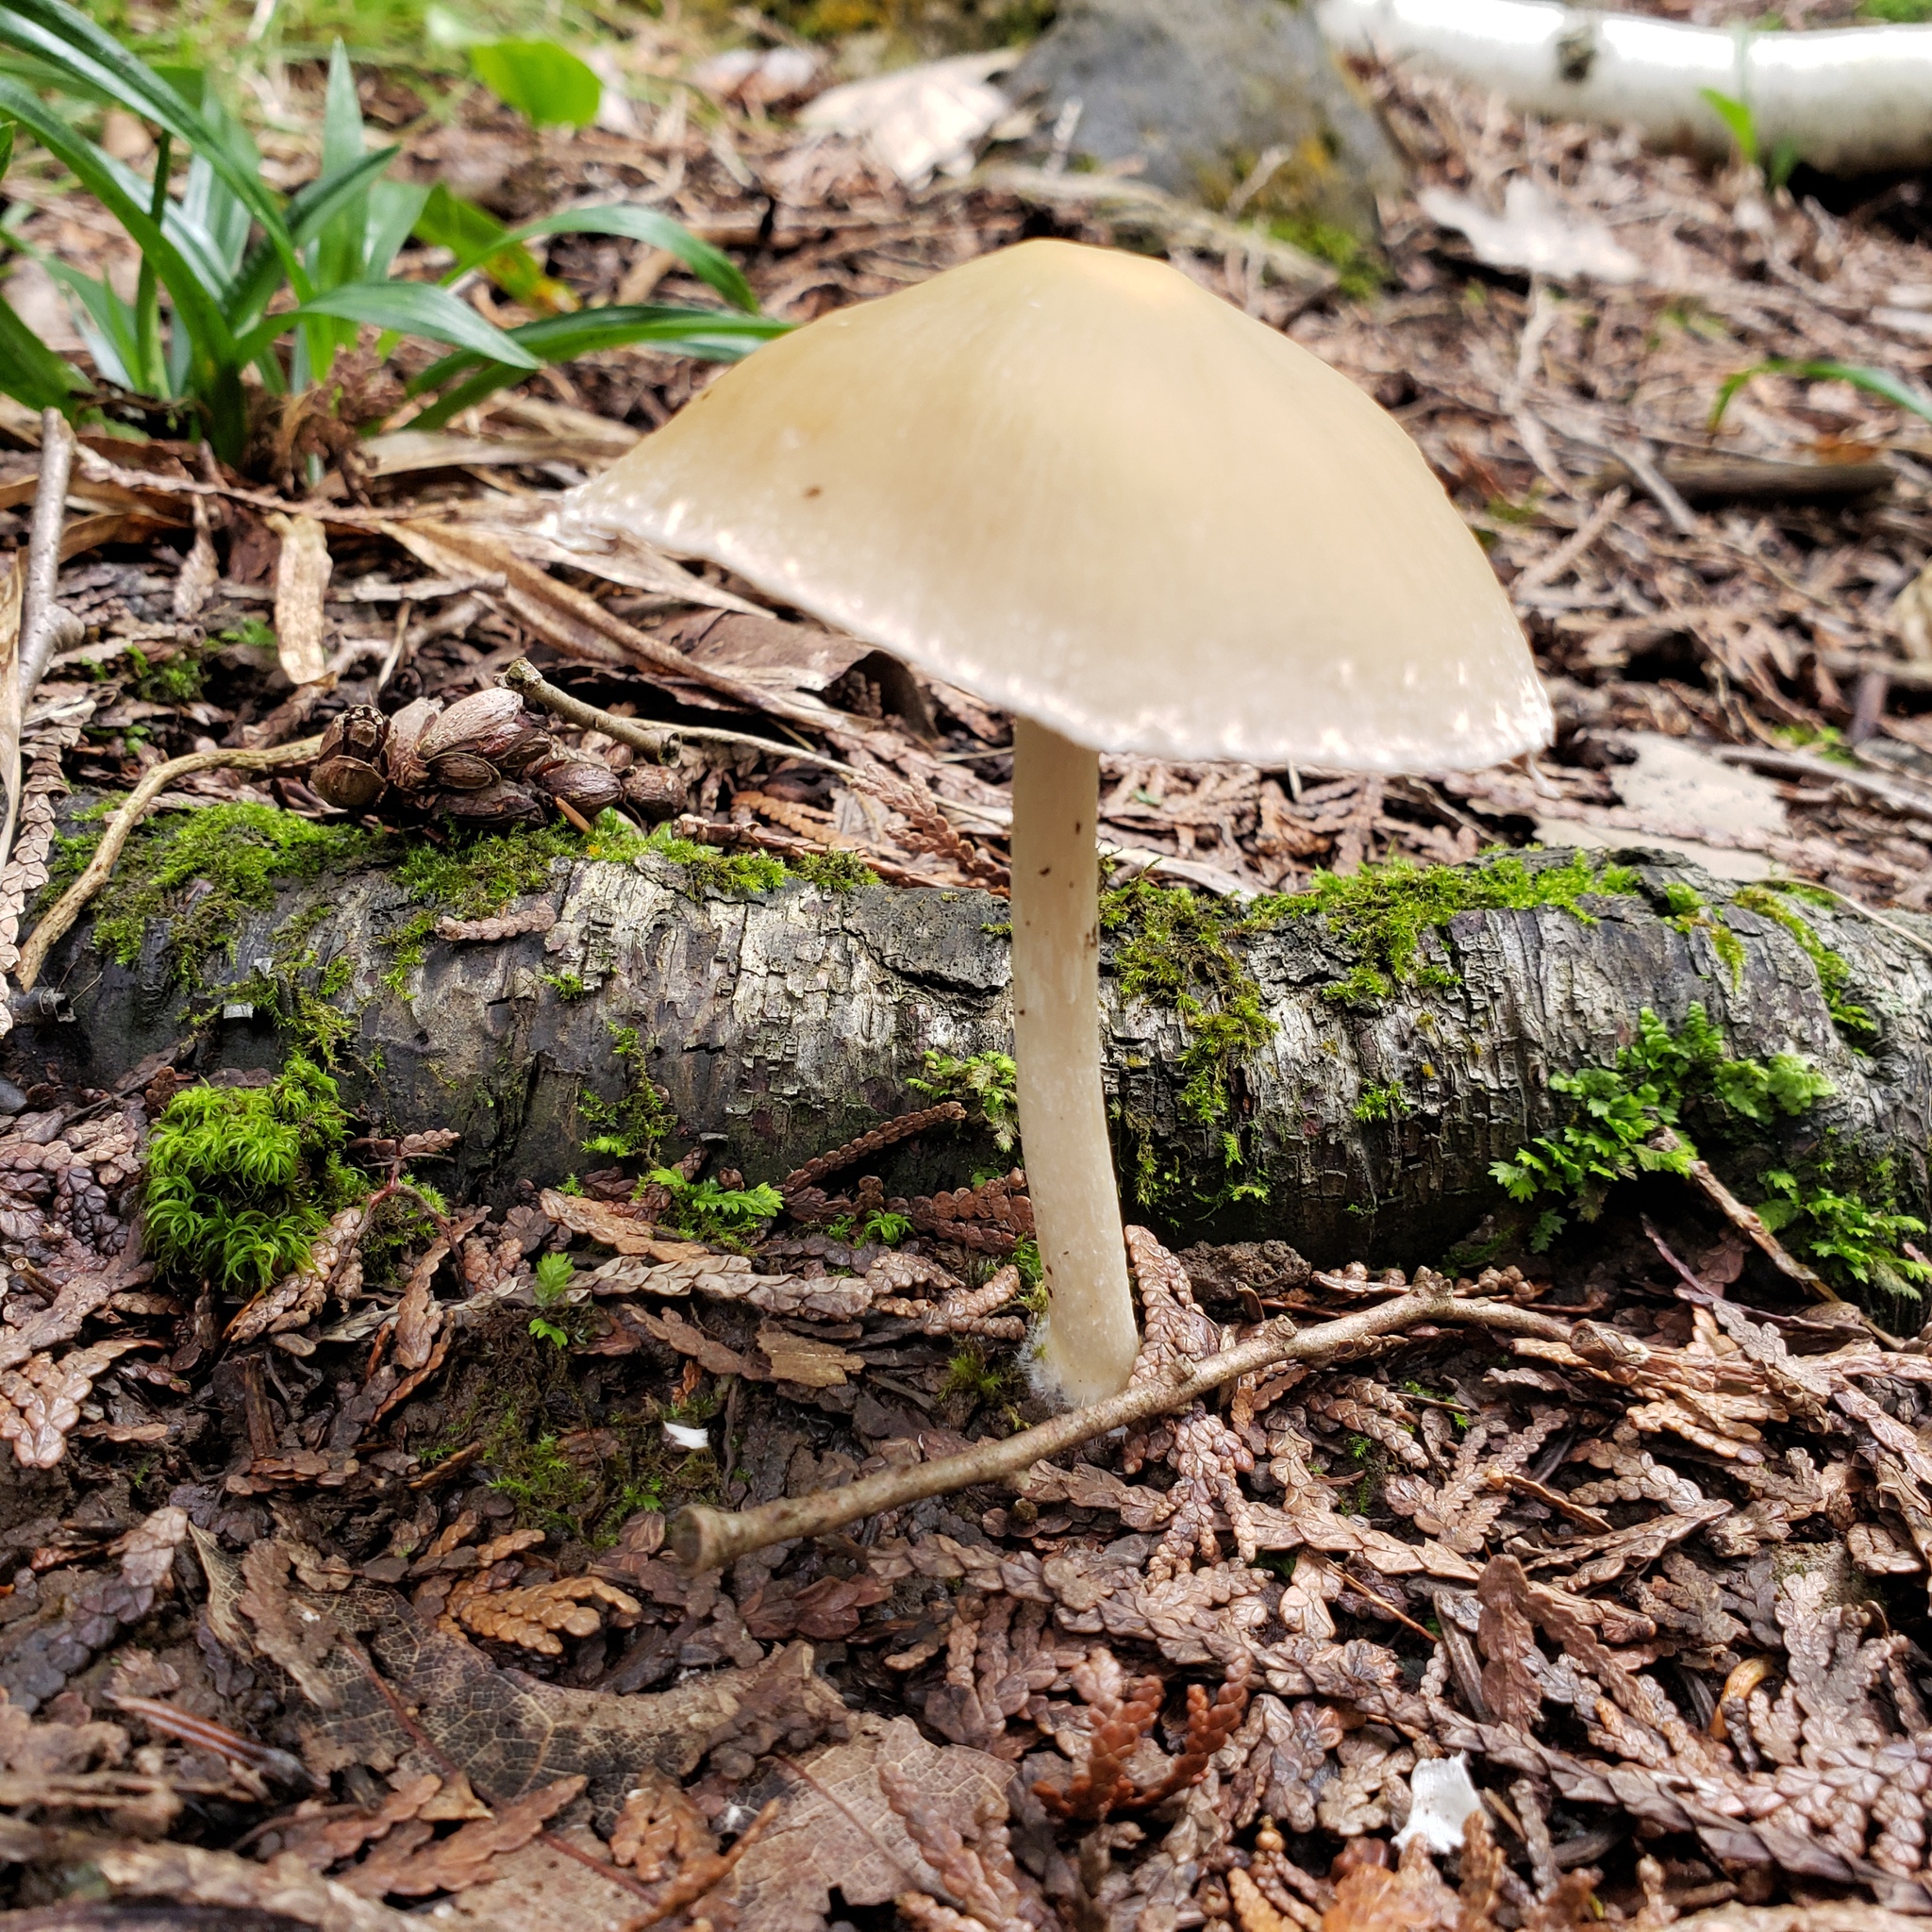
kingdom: Fungi
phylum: Basidiomycota
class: Agaricomycetes
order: Agaricales
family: Psathyrellaceae
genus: Candolleomyces
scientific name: Candolleomyces candolleanus
